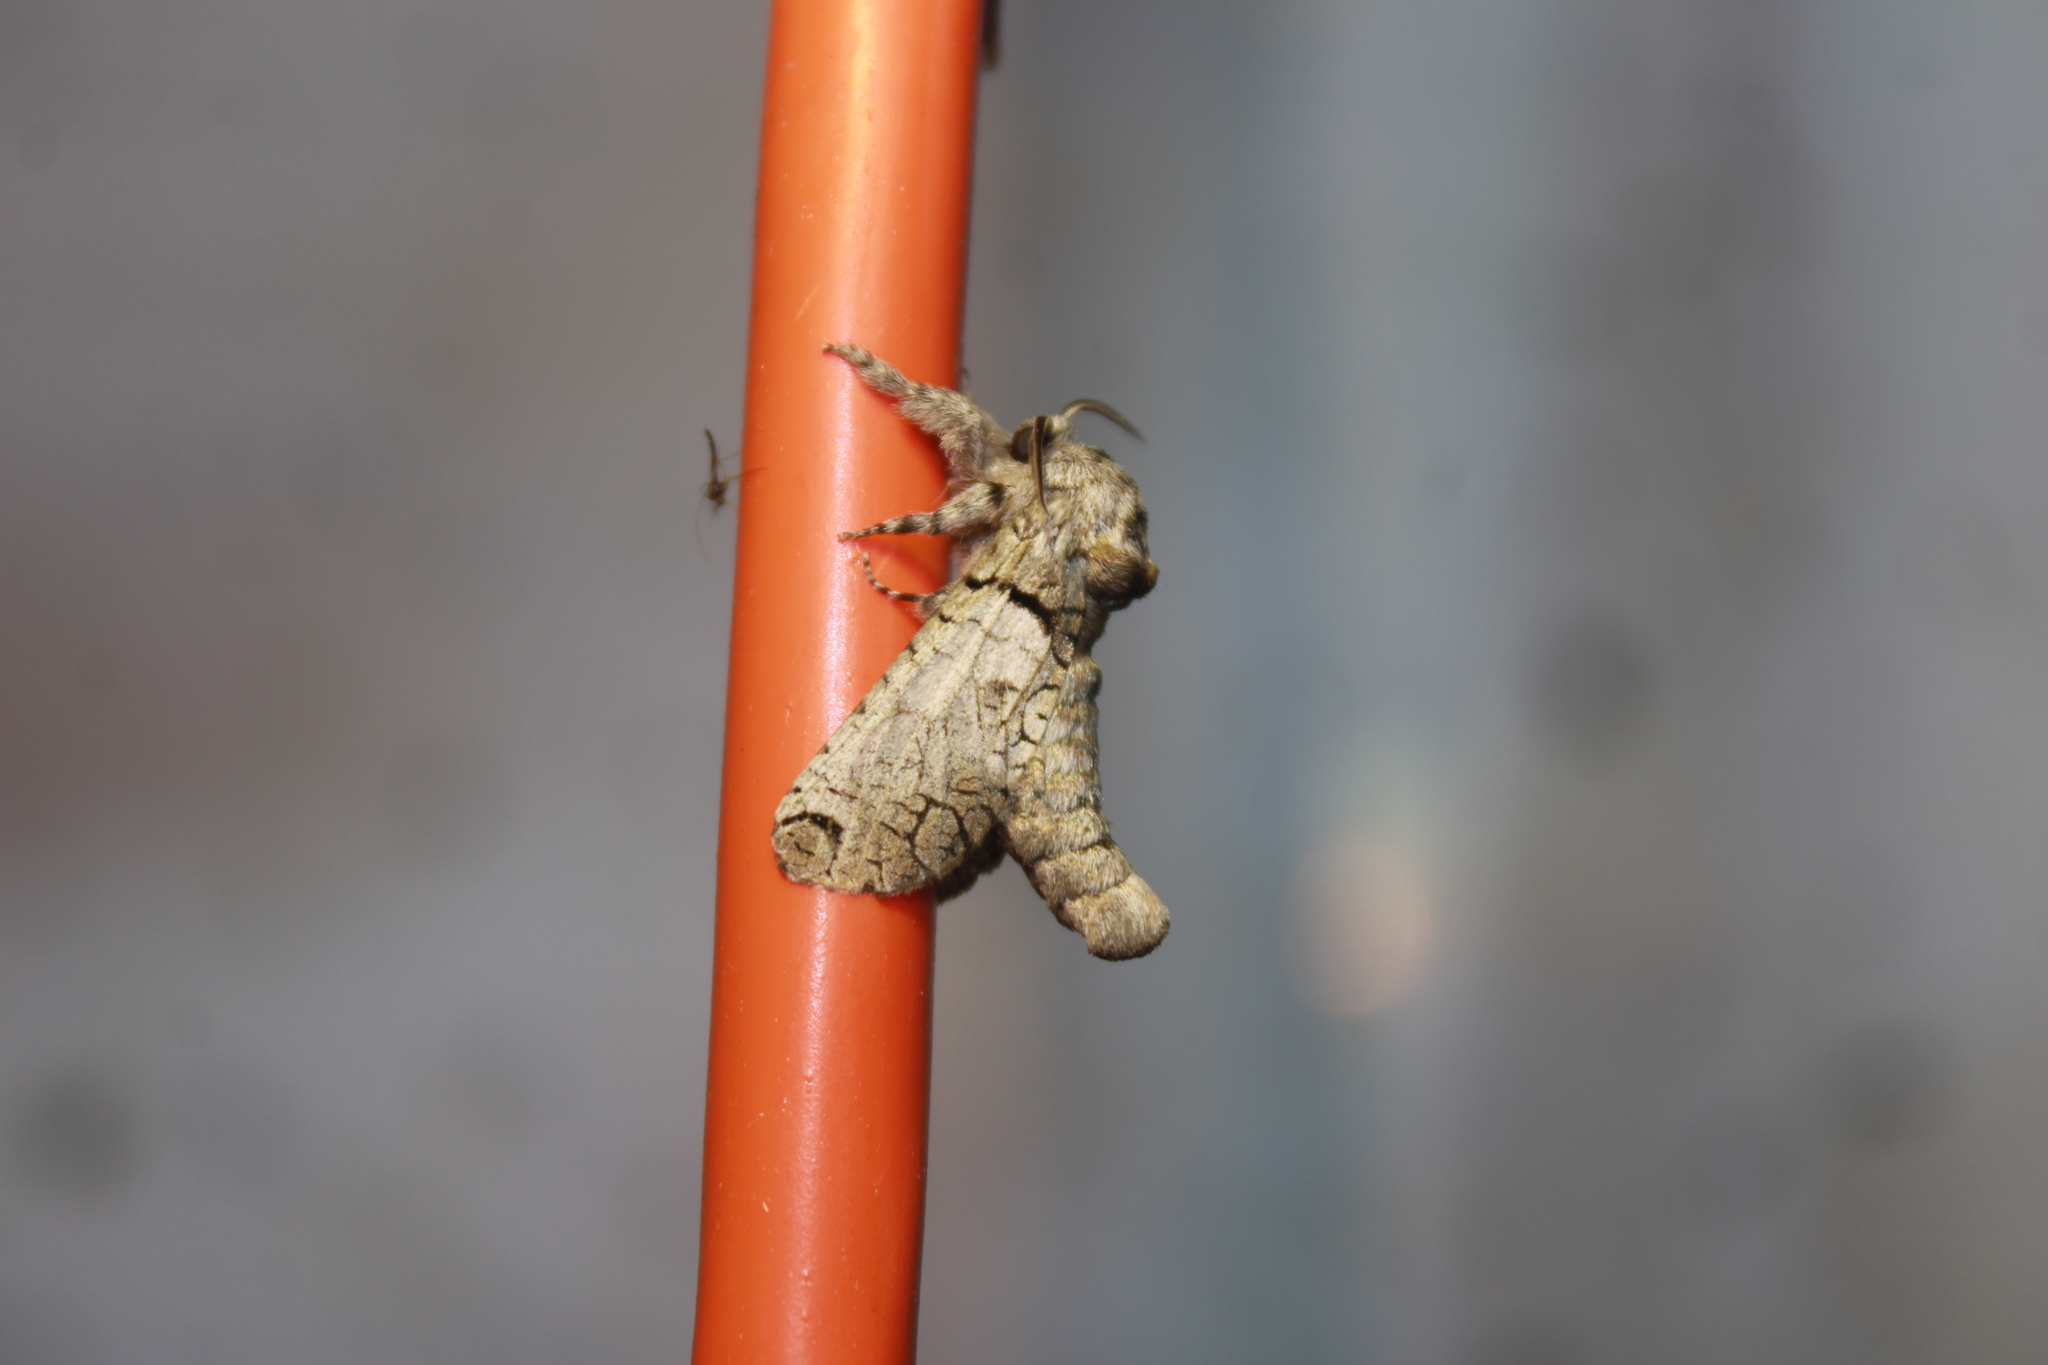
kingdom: Animalia
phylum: Arthropoda
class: Insecta
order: Lepidoptera
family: Cossidae
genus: Inguromorpha
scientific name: Inguromorpha basalis
